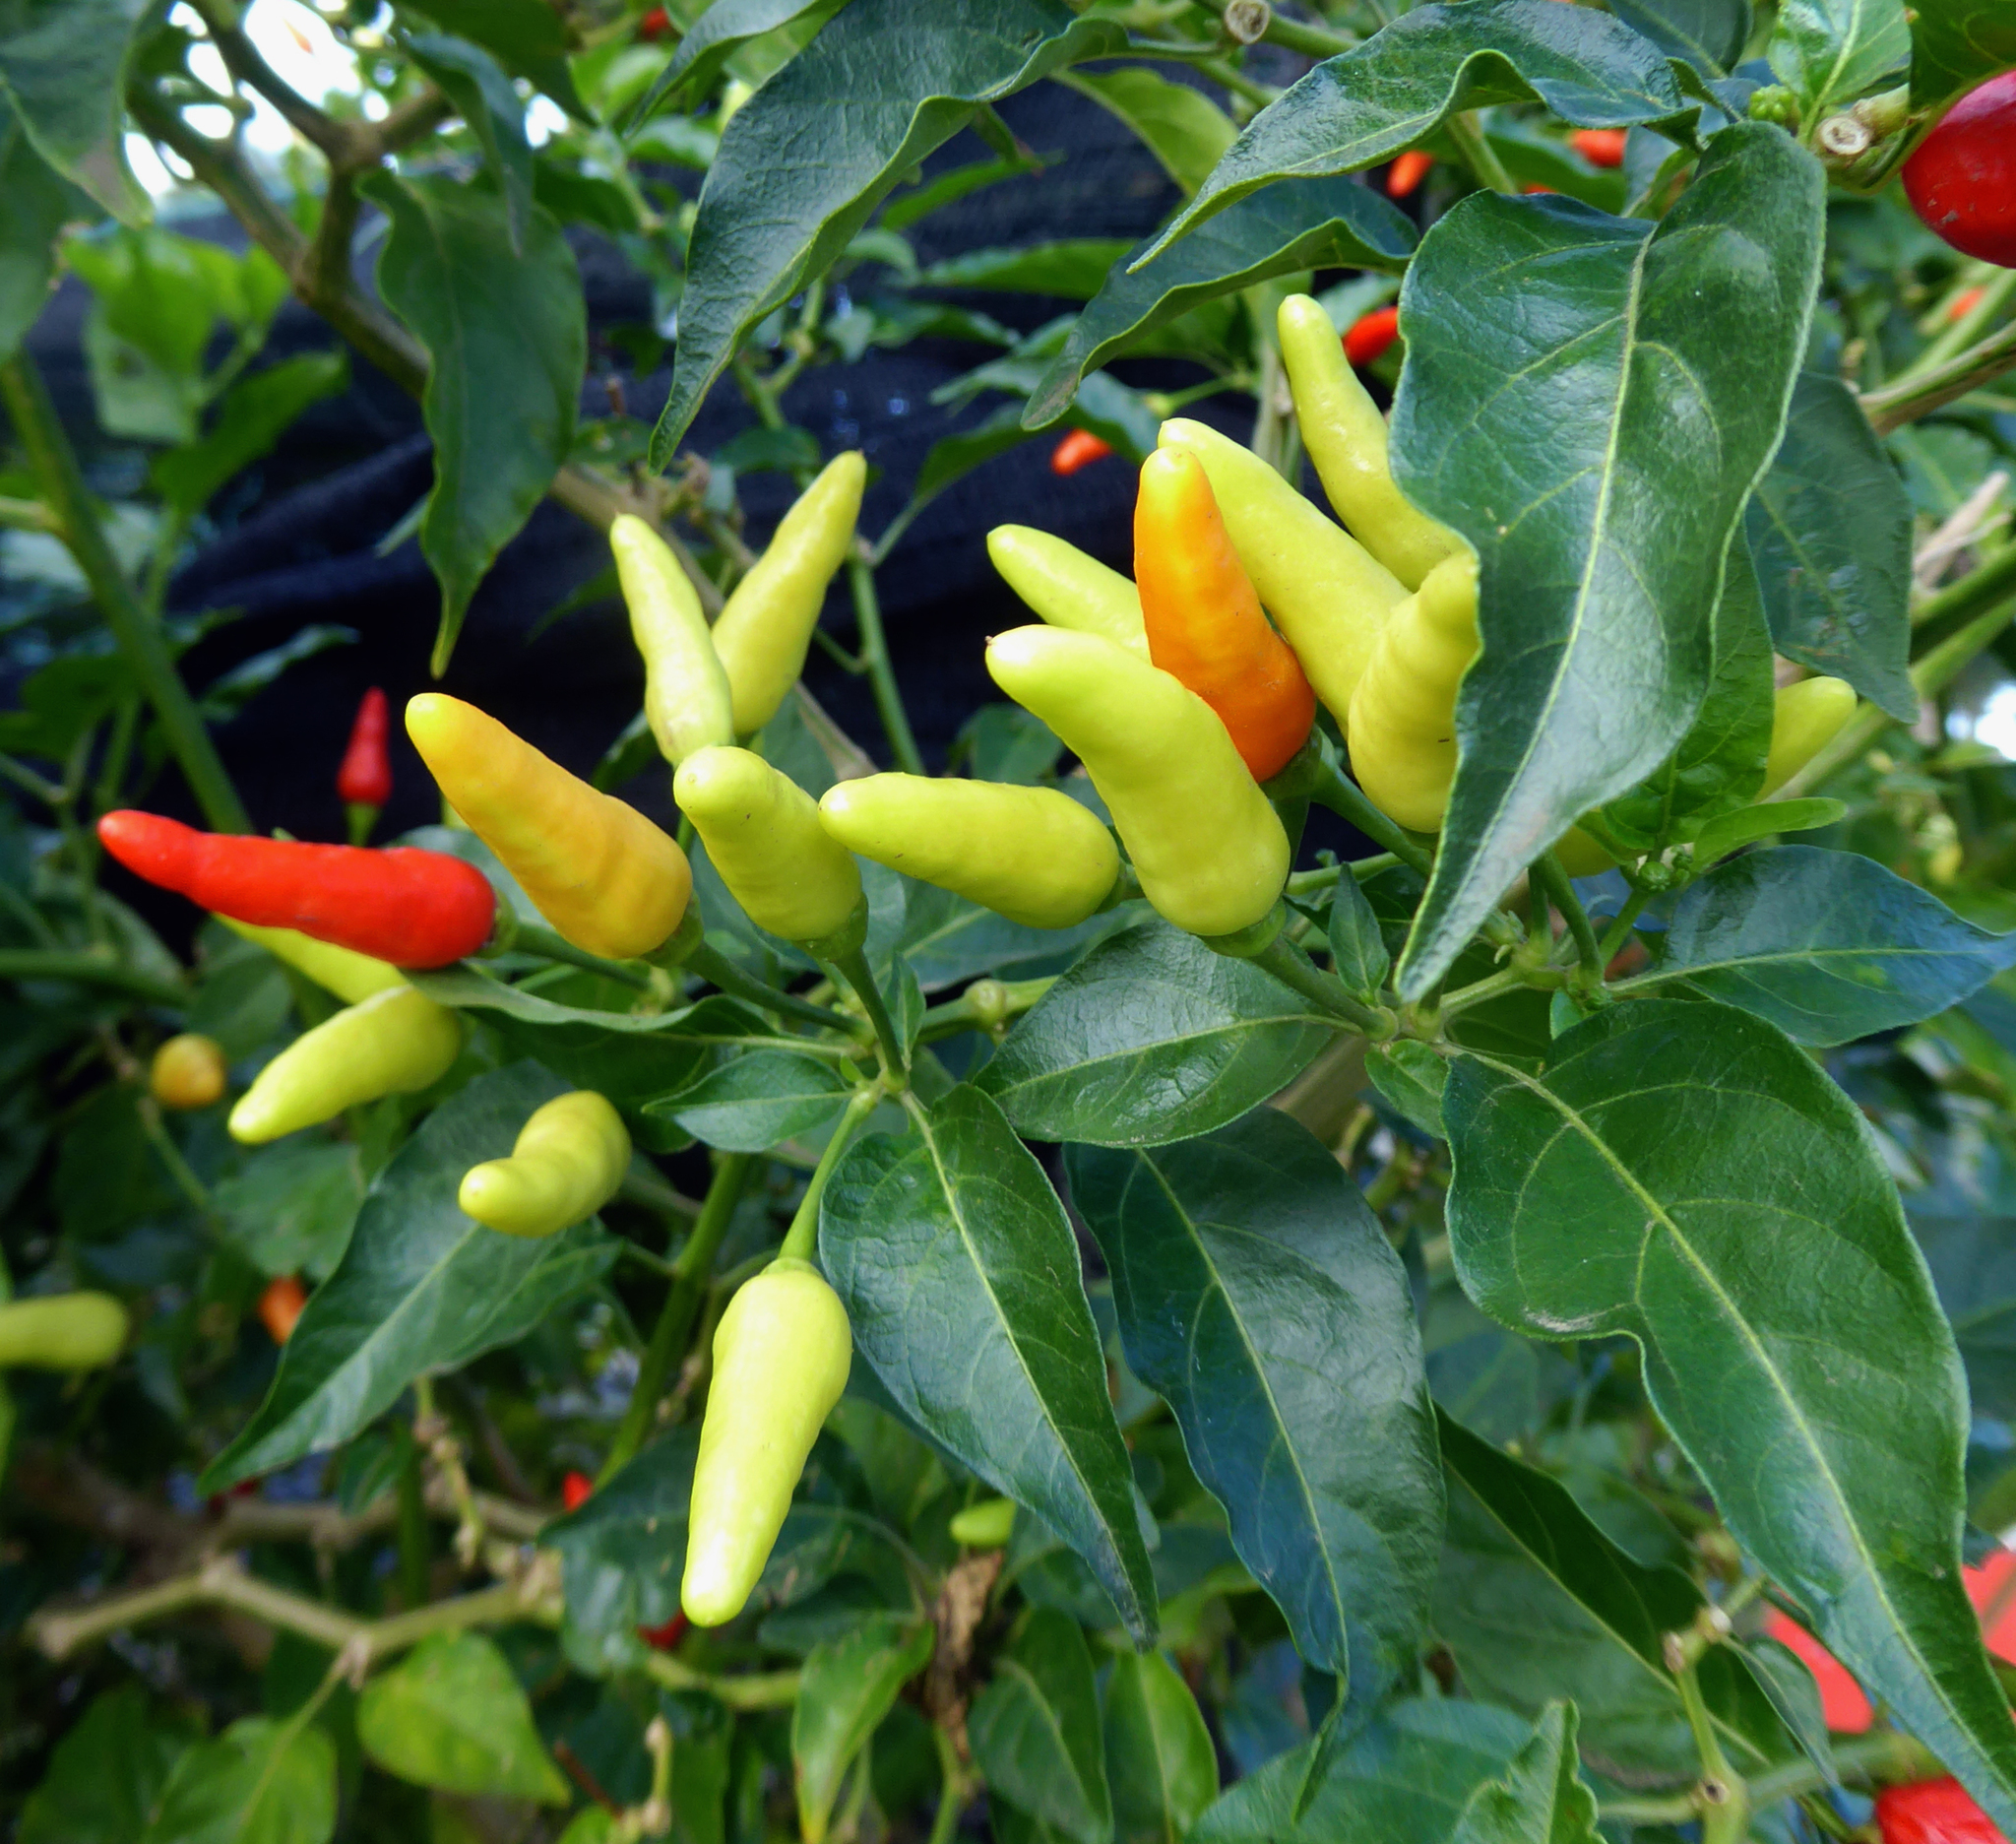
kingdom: Plantae
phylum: Tracheophyta
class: Magnoliopsida
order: Solanales
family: Solanaceae
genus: Capsicum
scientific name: Capsicum frutescens
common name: Bird pepper
